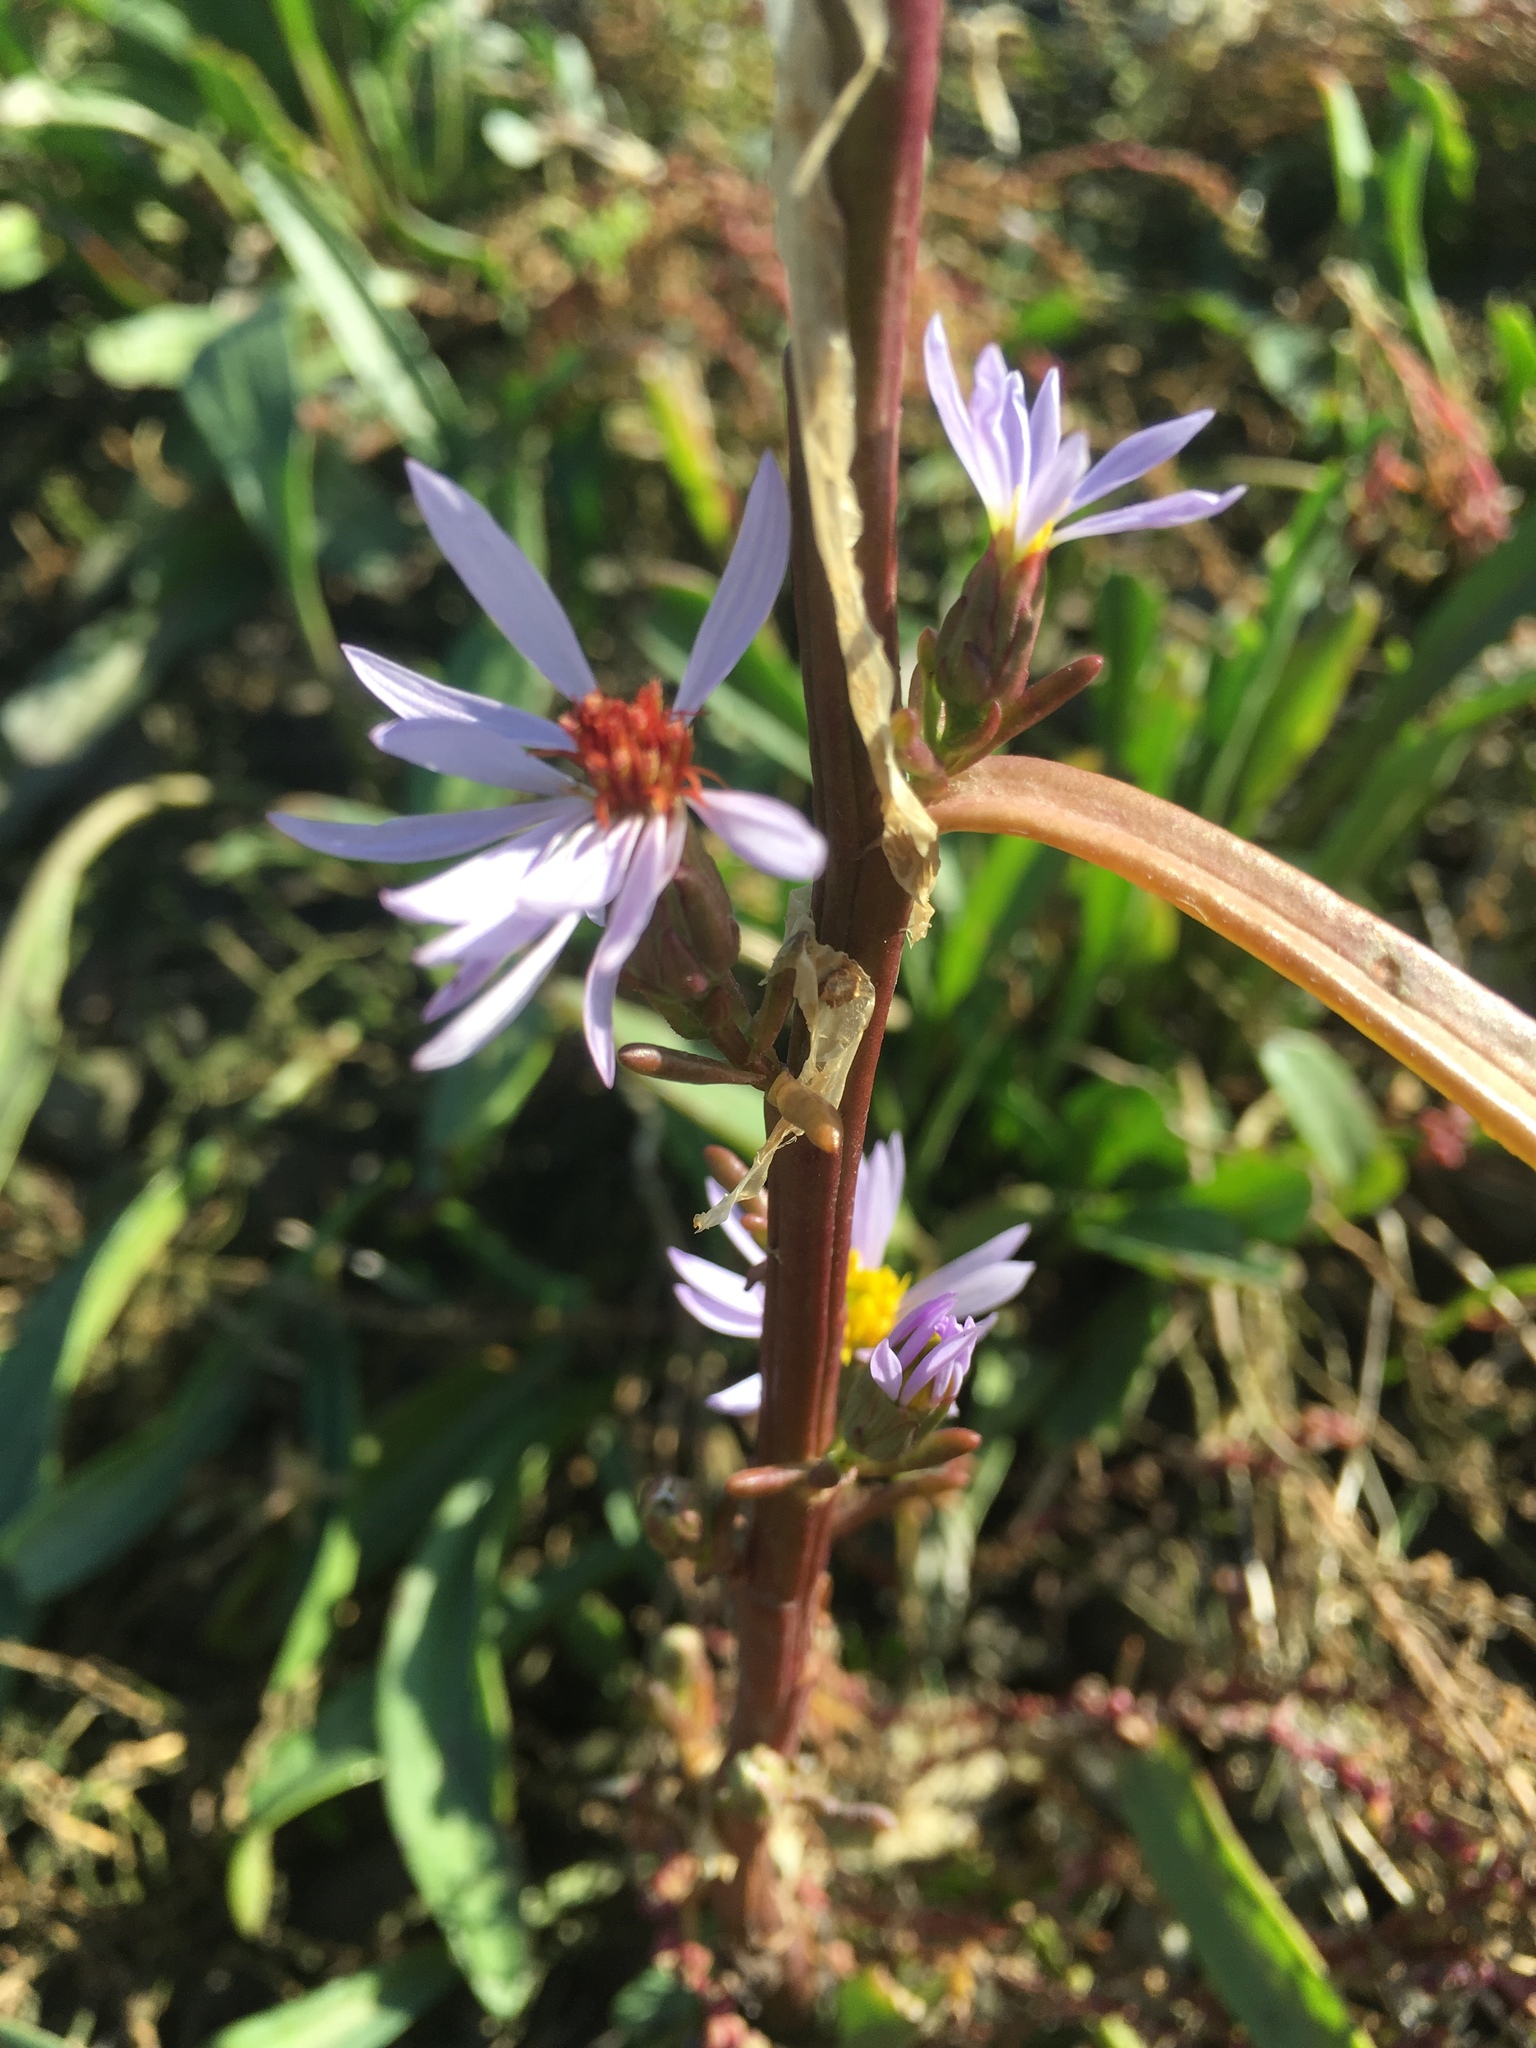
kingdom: Plantae
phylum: Tracheophyta
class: Magnoliopsida
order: Asterales
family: Asteraceae
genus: Tripolium
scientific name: Tripolium pannonicum
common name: Sea aster
